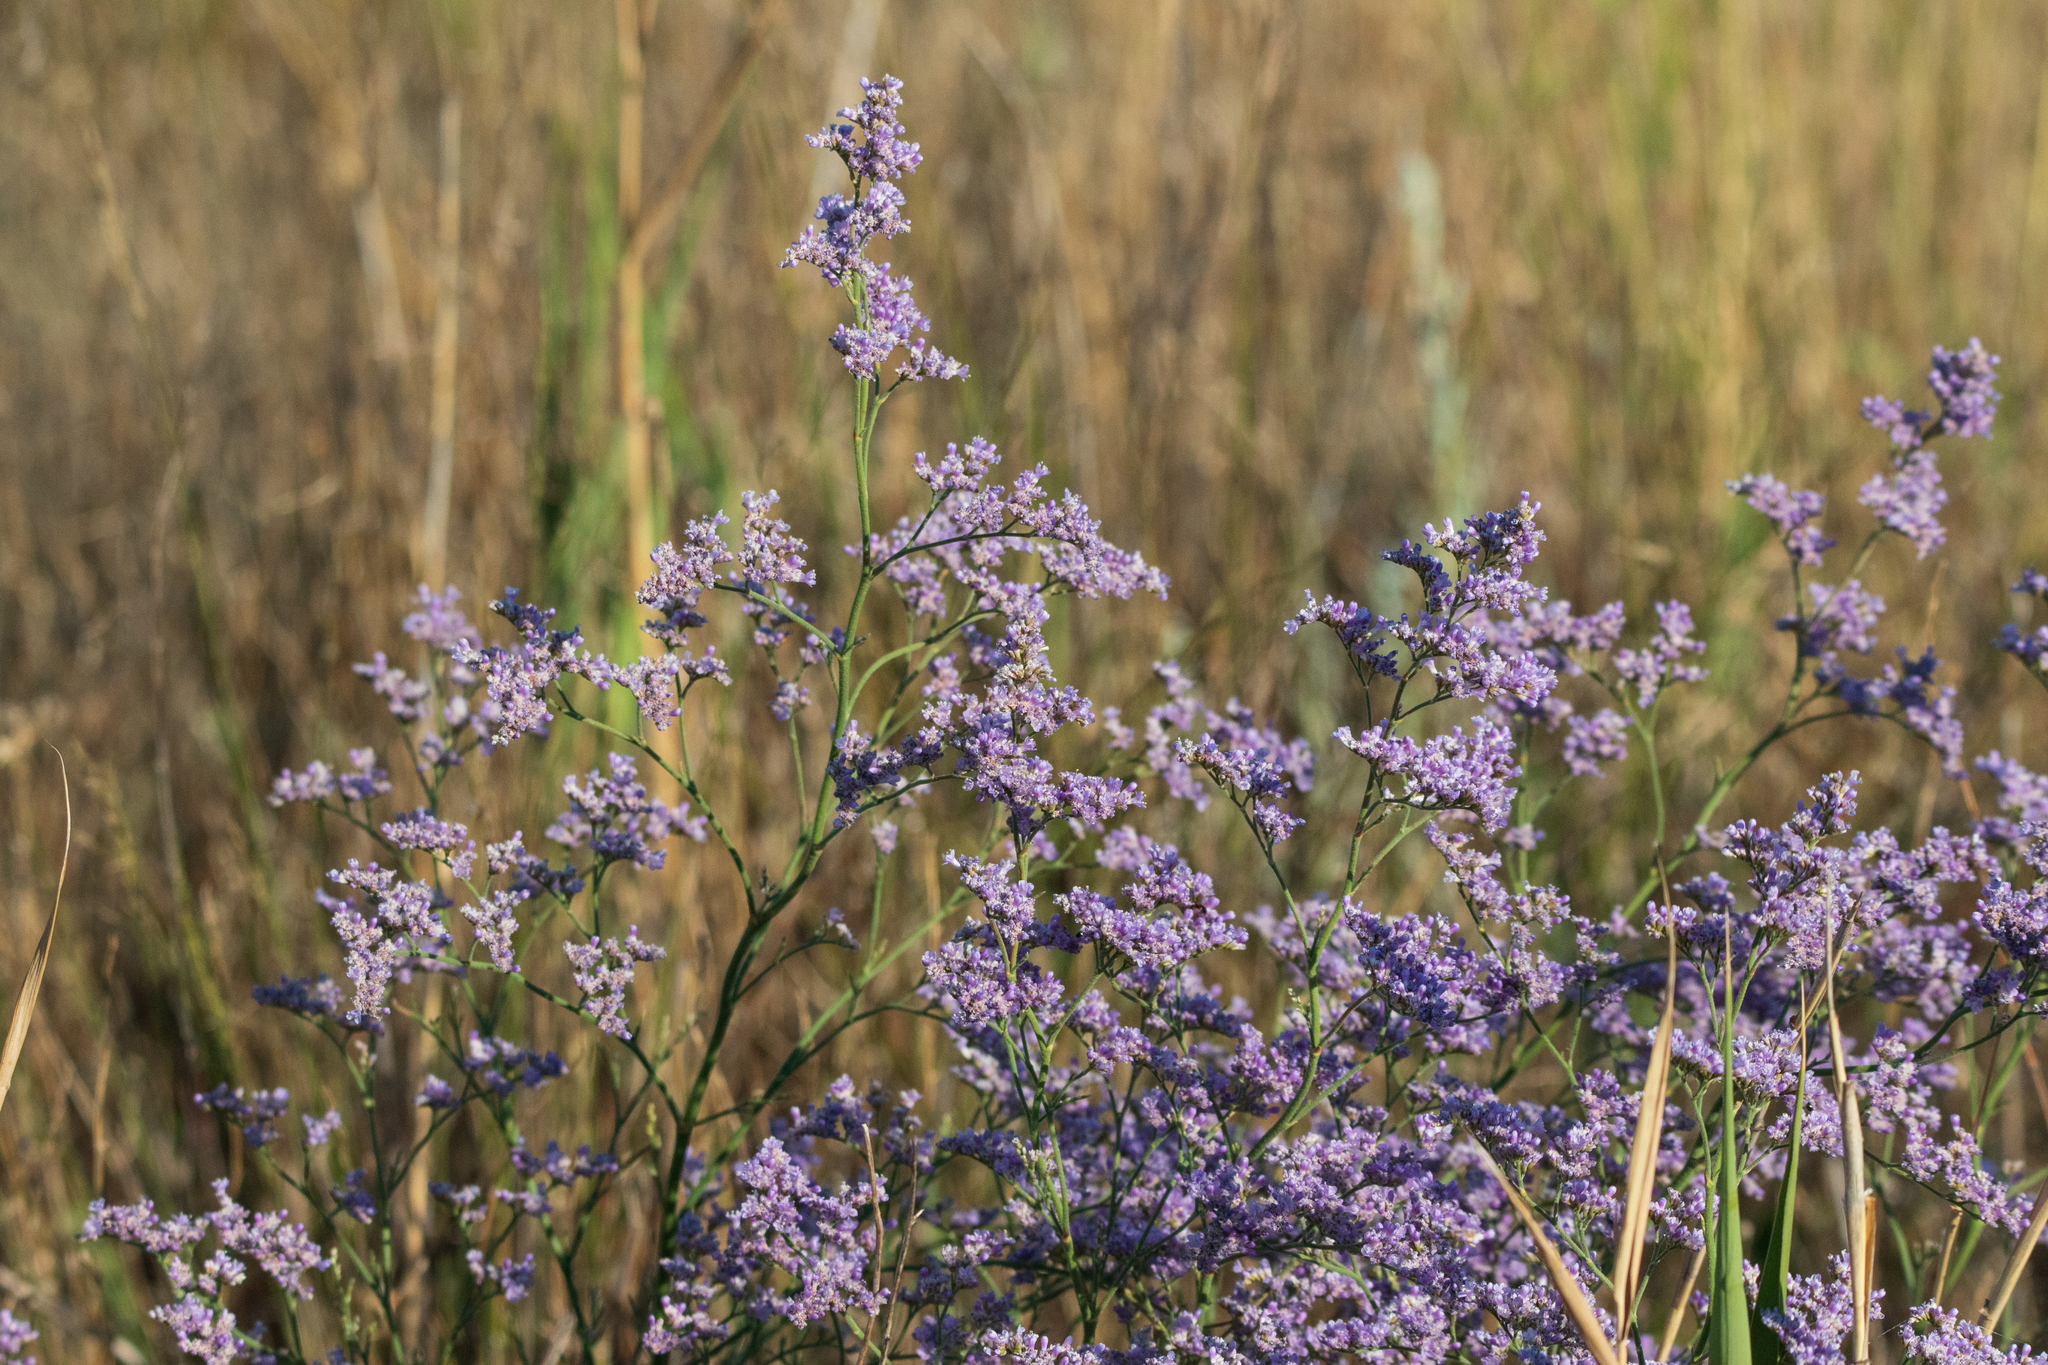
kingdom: Plantae
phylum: Tracheophyta
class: Magnoliopsida
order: Caryophyllales
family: Plumbaginaceae
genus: Limonium
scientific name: Limonium gmelini
